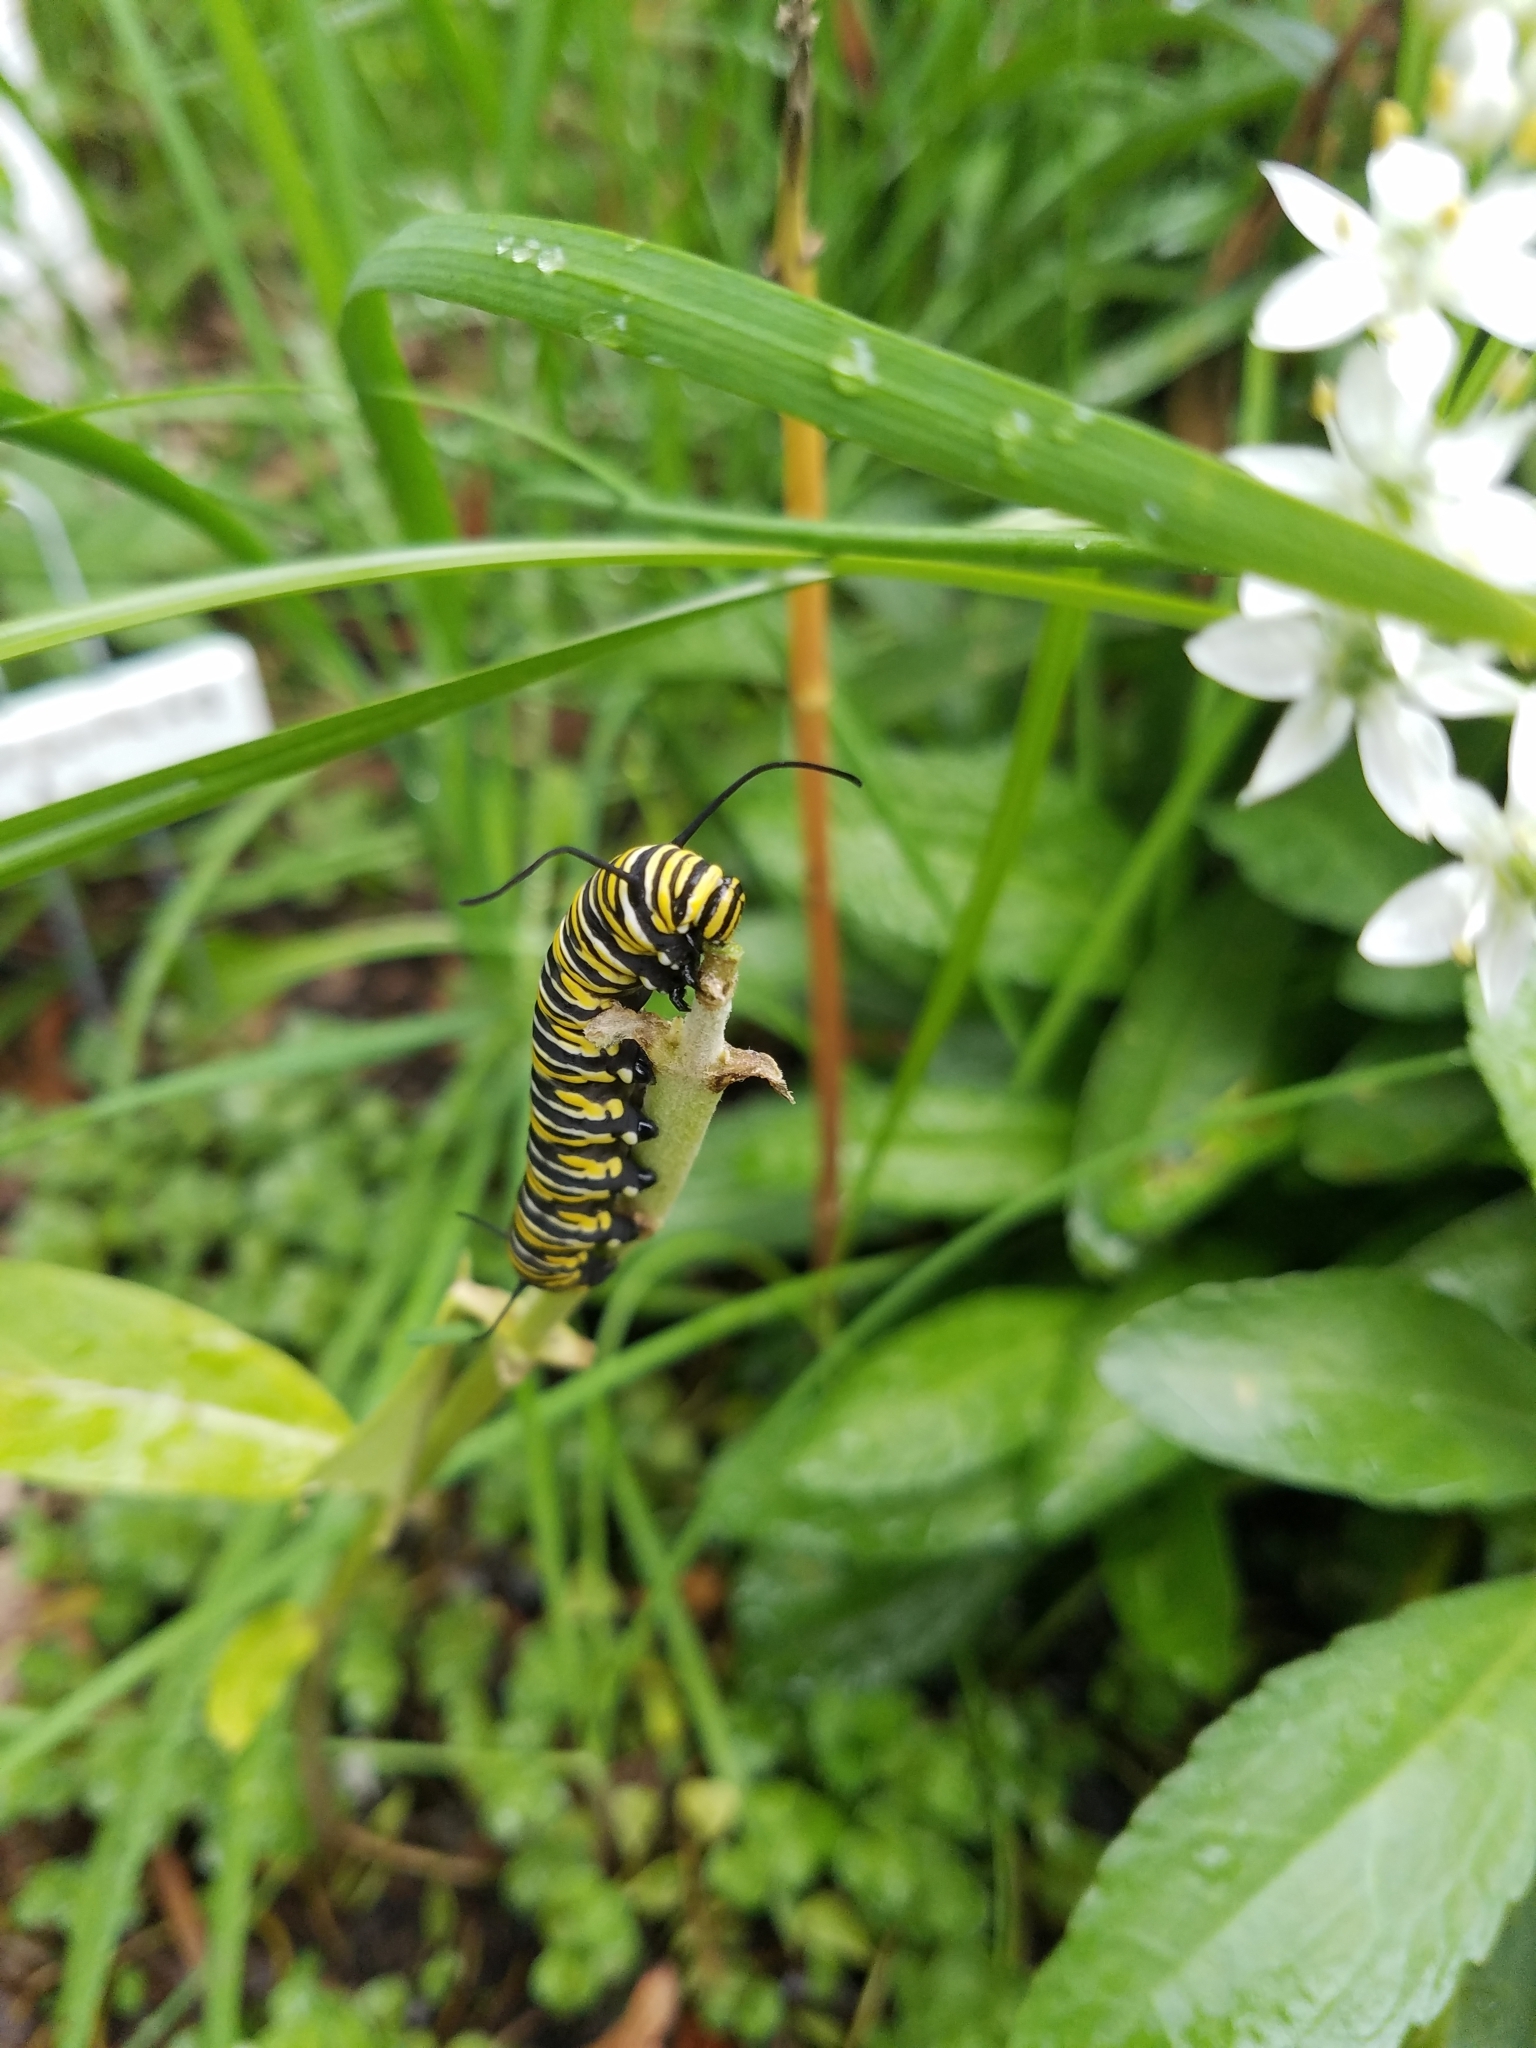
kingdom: Animalia
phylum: Arthropoda
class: Insecta
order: Lepidoptera
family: Nymphalidae
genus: Danaus
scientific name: Danaus plexippus
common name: Monarch
